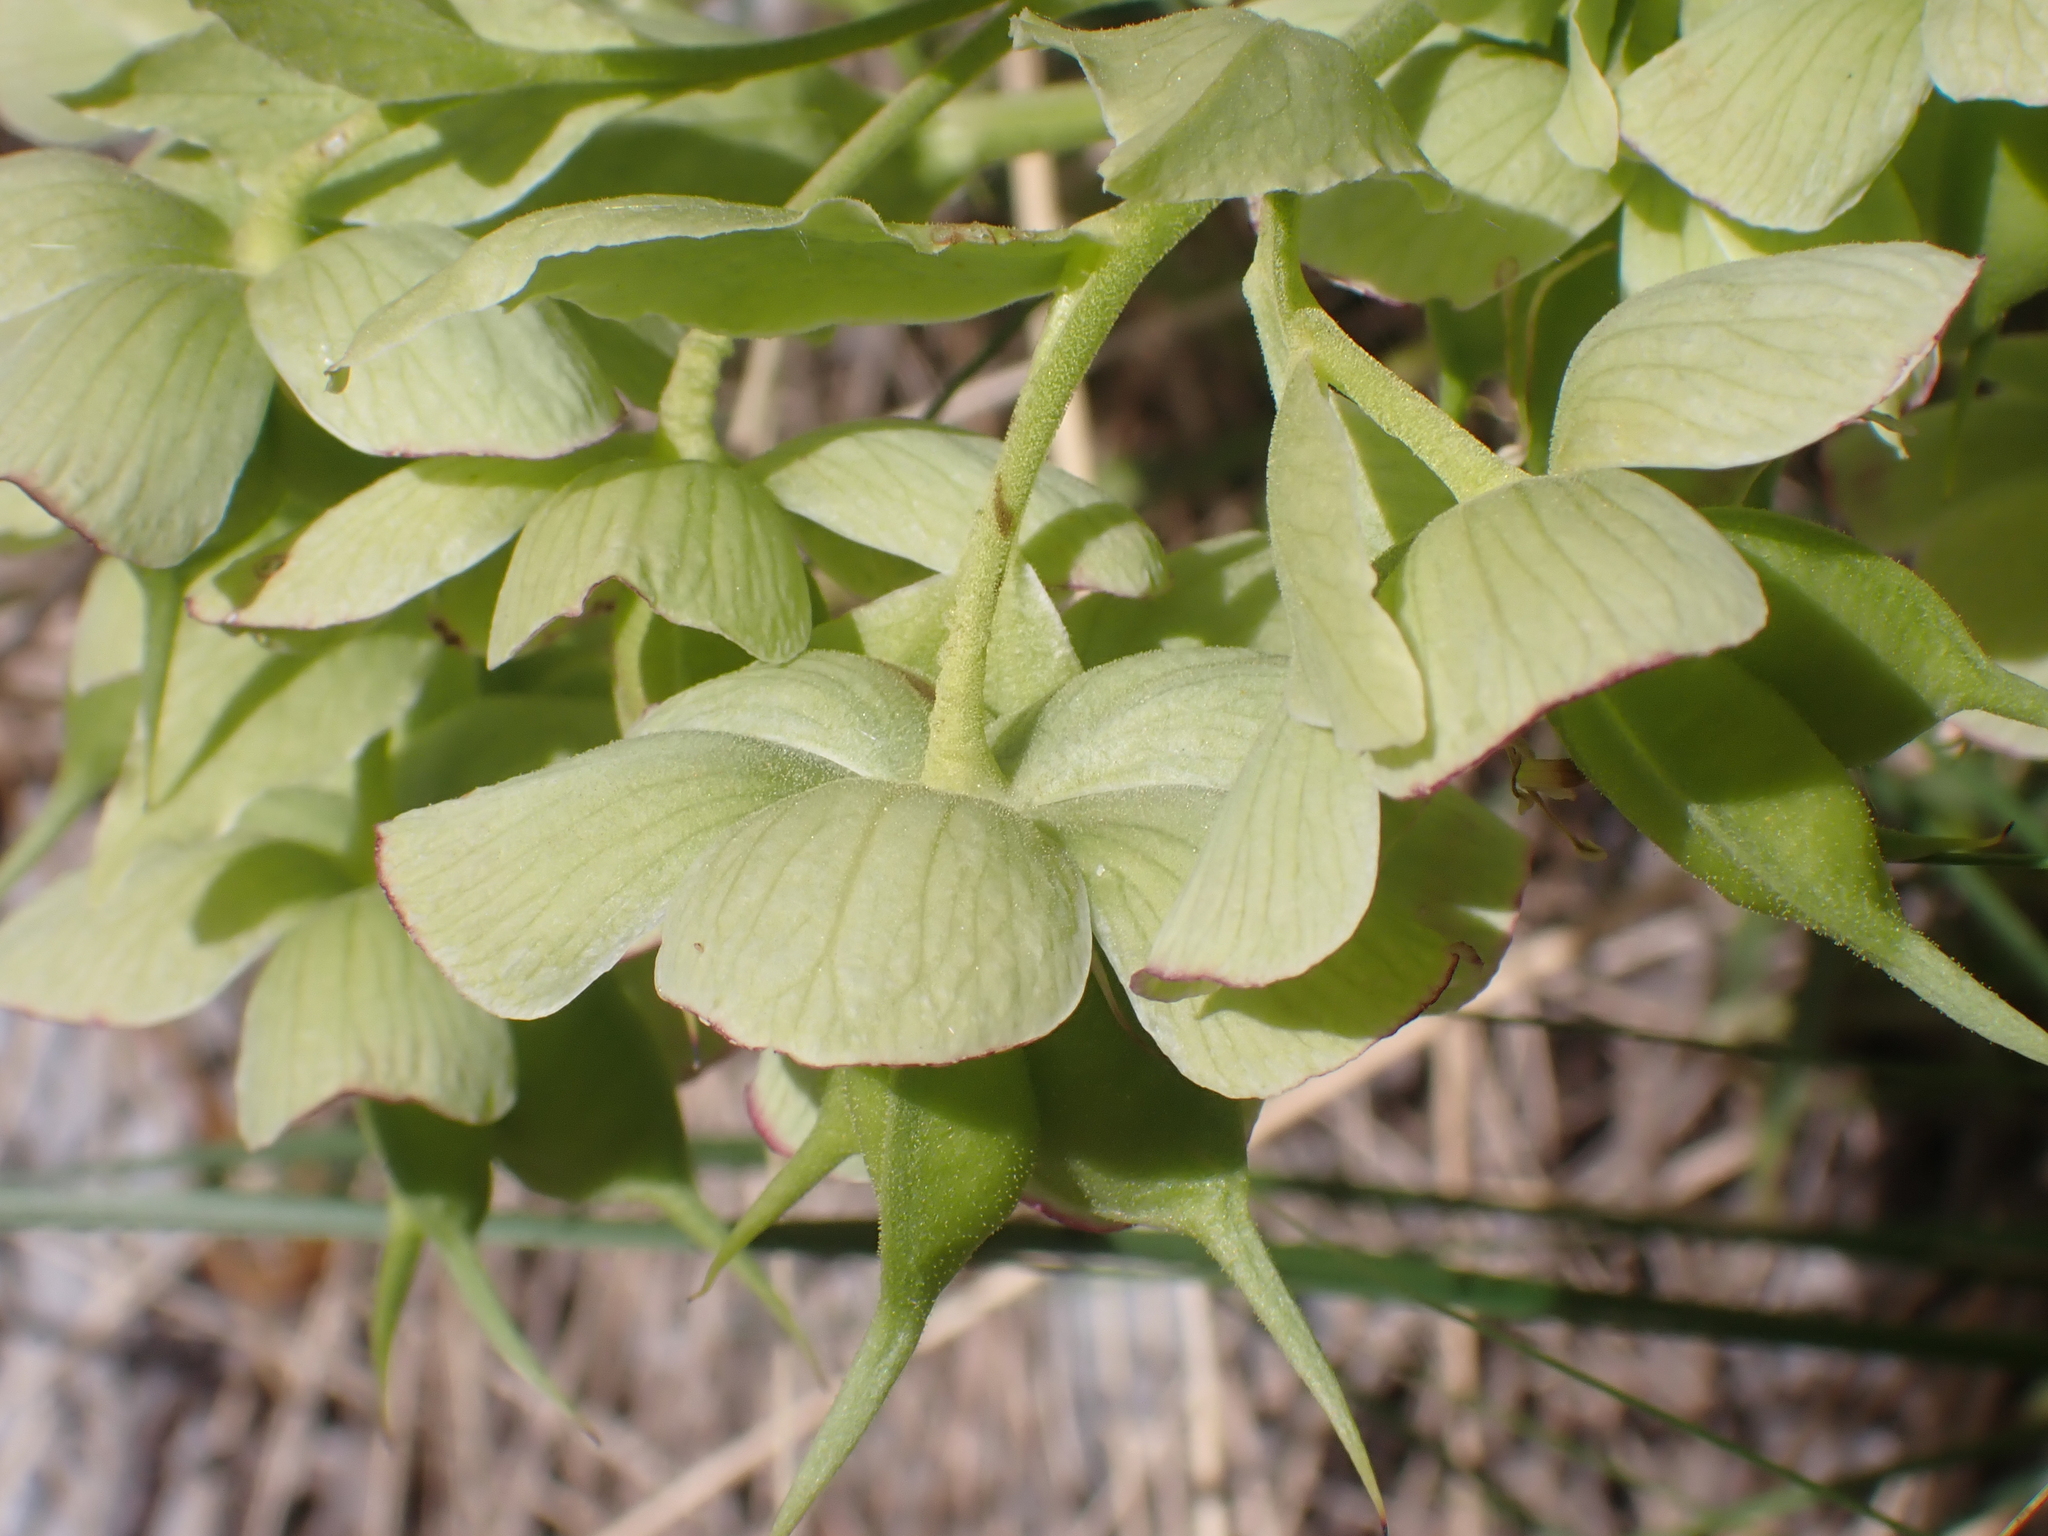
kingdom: Plantae
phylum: Tracheophyta
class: Magnoliopsida
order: Ranunculales
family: Ranunculaceae
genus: Helleborus
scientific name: Helleborus foetidus
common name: Stinking hellebore
